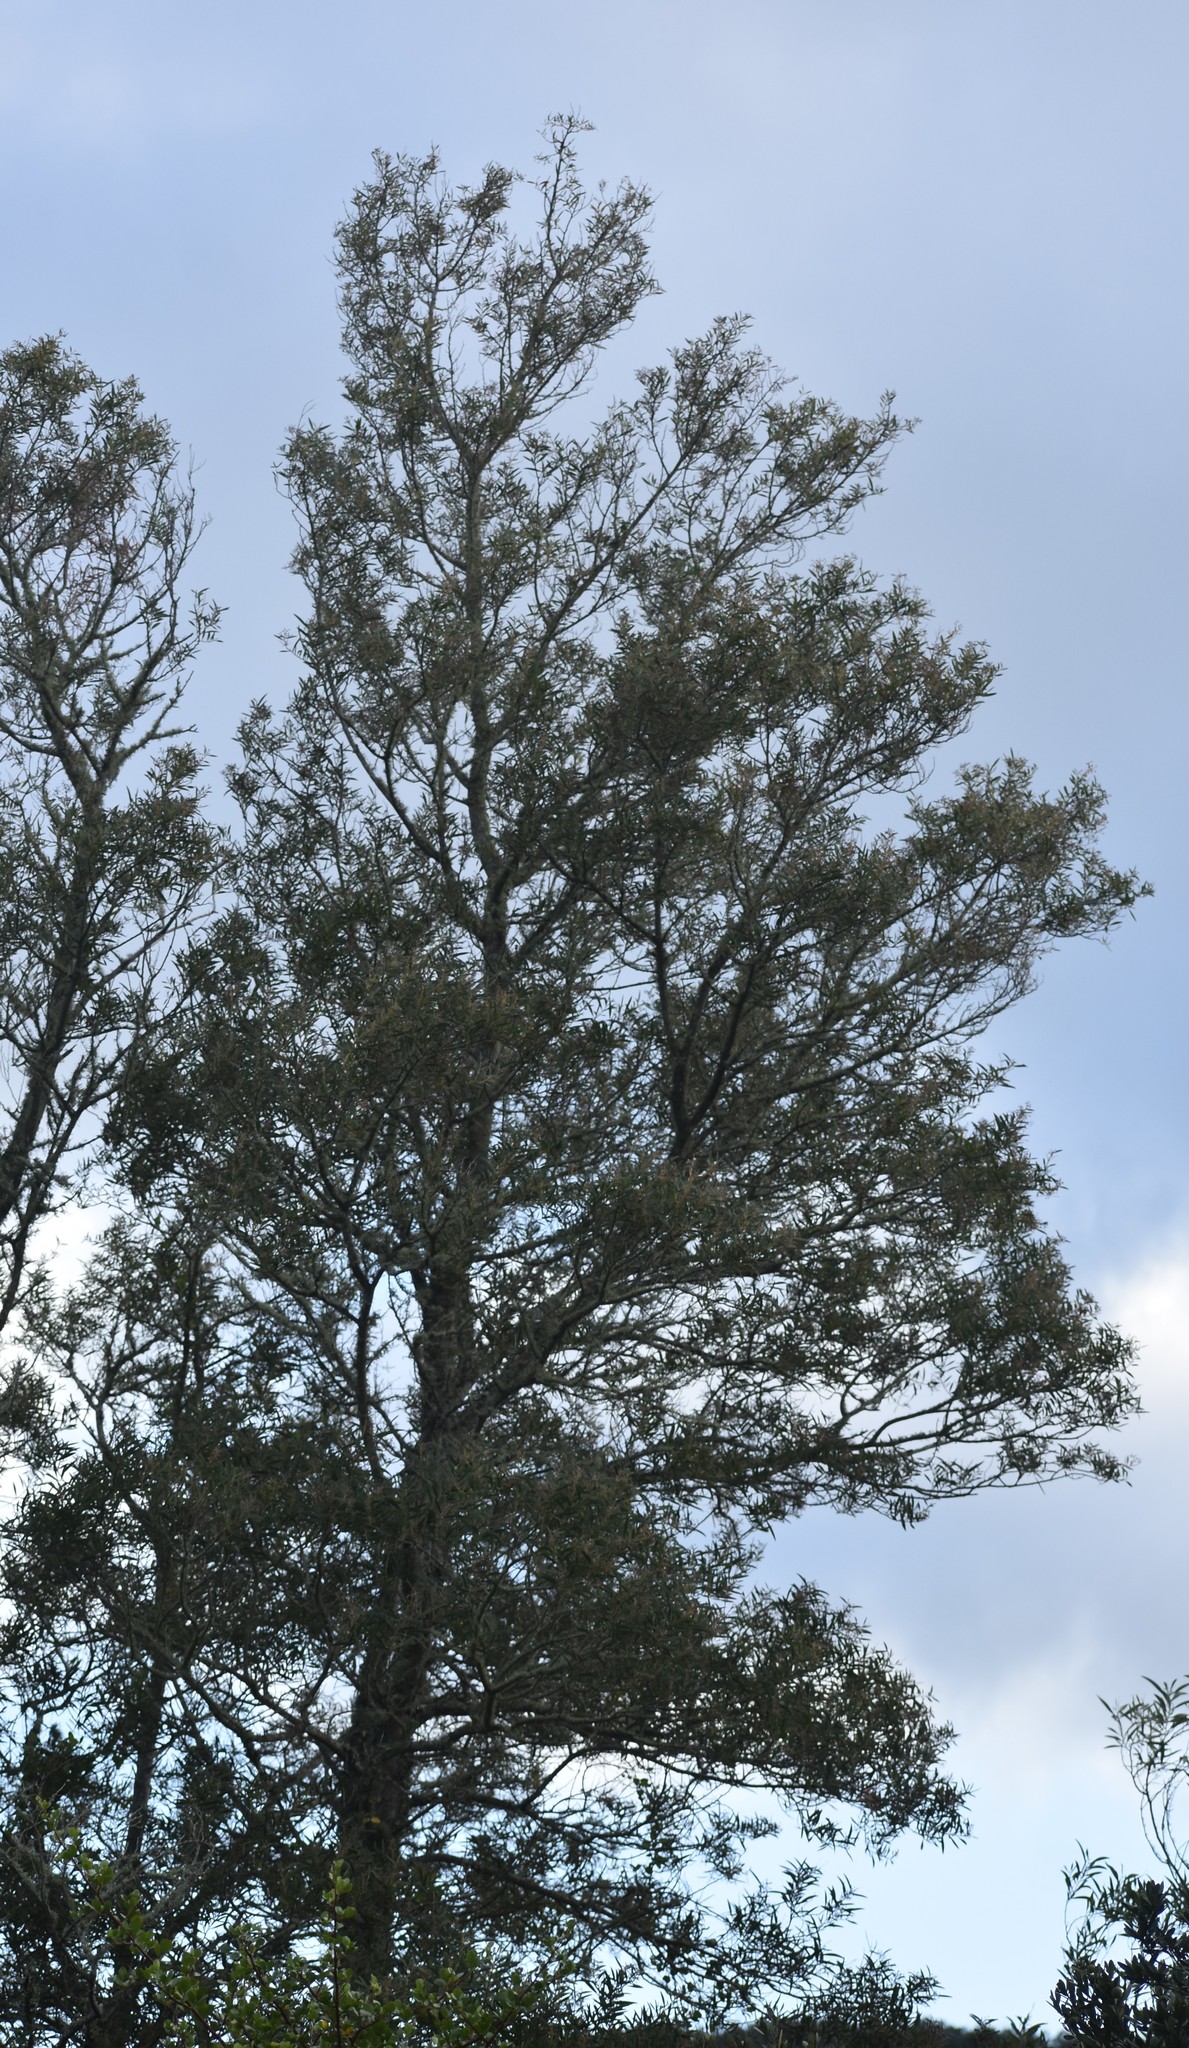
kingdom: Plantae
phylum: Tracheophyta
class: Magnoliopsida
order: Fabales
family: Fabaceae
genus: Acacia
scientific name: Acacia melanoxylon
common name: Blackwood
